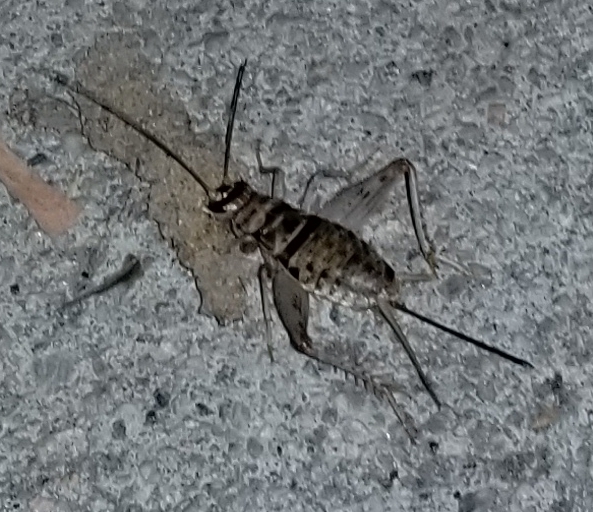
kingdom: Animalia
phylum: Arthropoda
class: Insecta
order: Orthoptera
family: Gryllidae
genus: Gryllodes
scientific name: Gryllodes sigillatus
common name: Tropical house cricket
